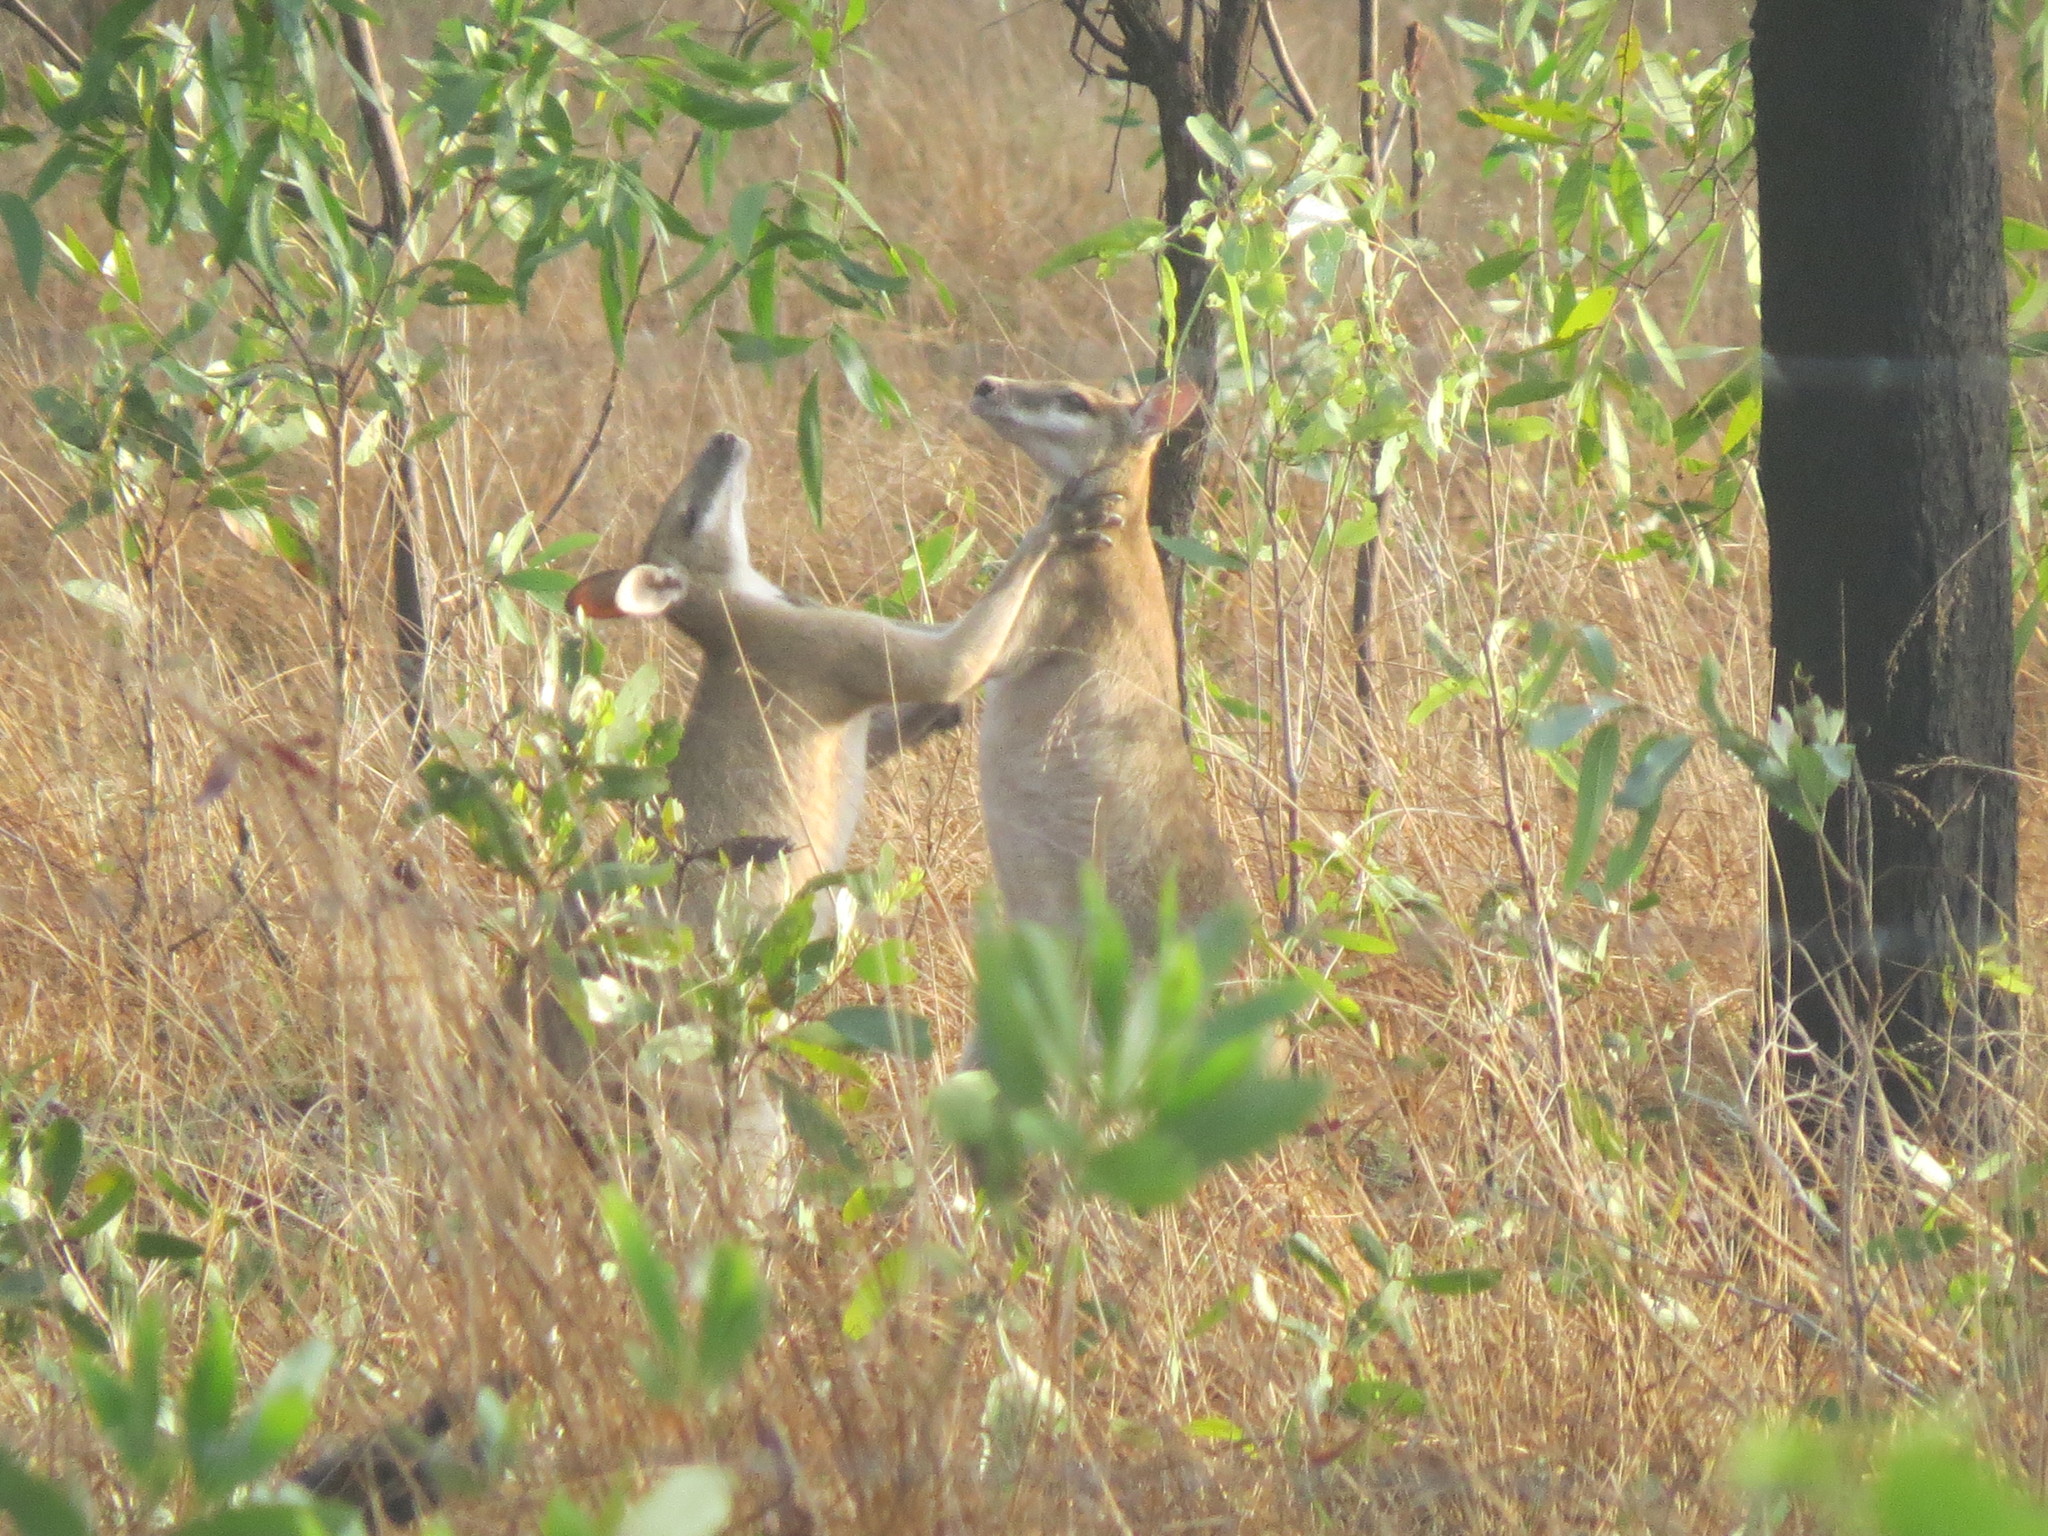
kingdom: Animalia
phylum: Chordata
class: Mammalia
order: Diprotodontia
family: Macropodidae
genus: Macropus
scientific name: Macropus agilis
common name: Agile wallaby
